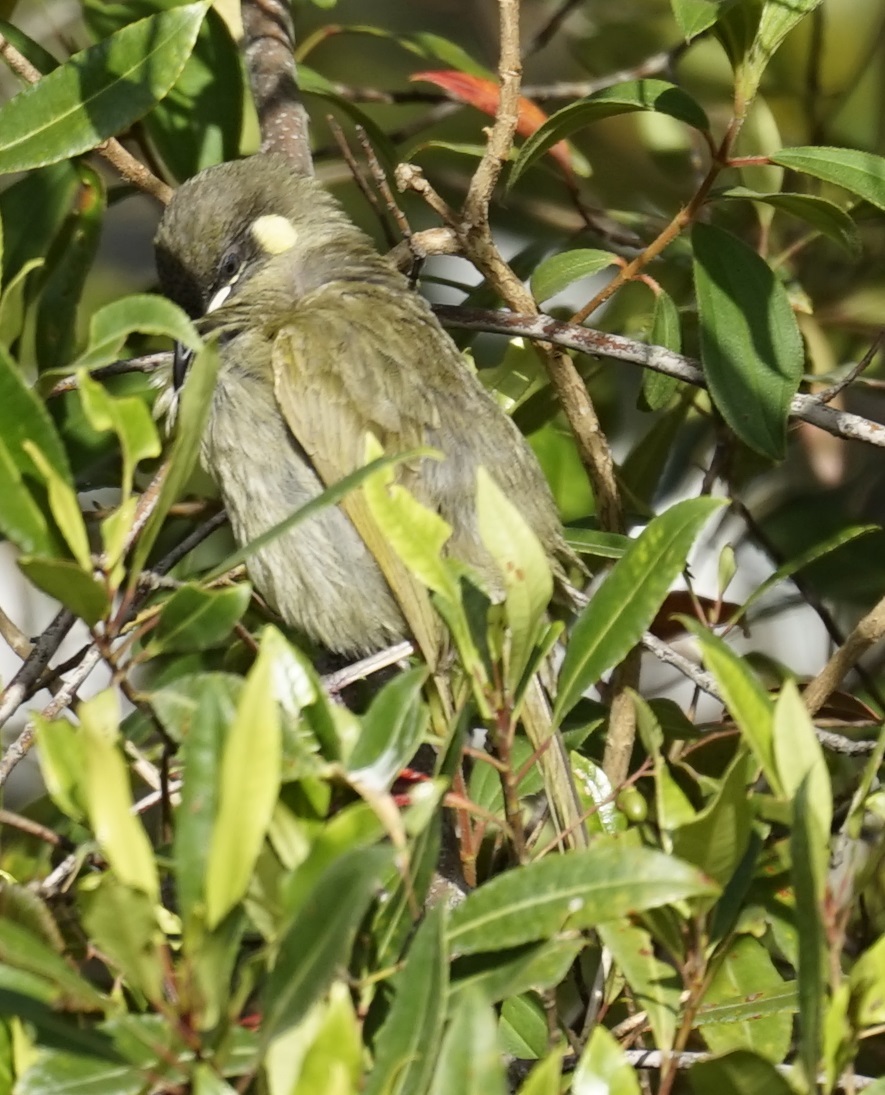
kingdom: Animalia
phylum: Chordata
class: Aves
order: Passeriformes
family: Meliphagidae
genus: Meliphaga
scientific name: Meliphaga lewinii
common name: Lewin's honeyeater
